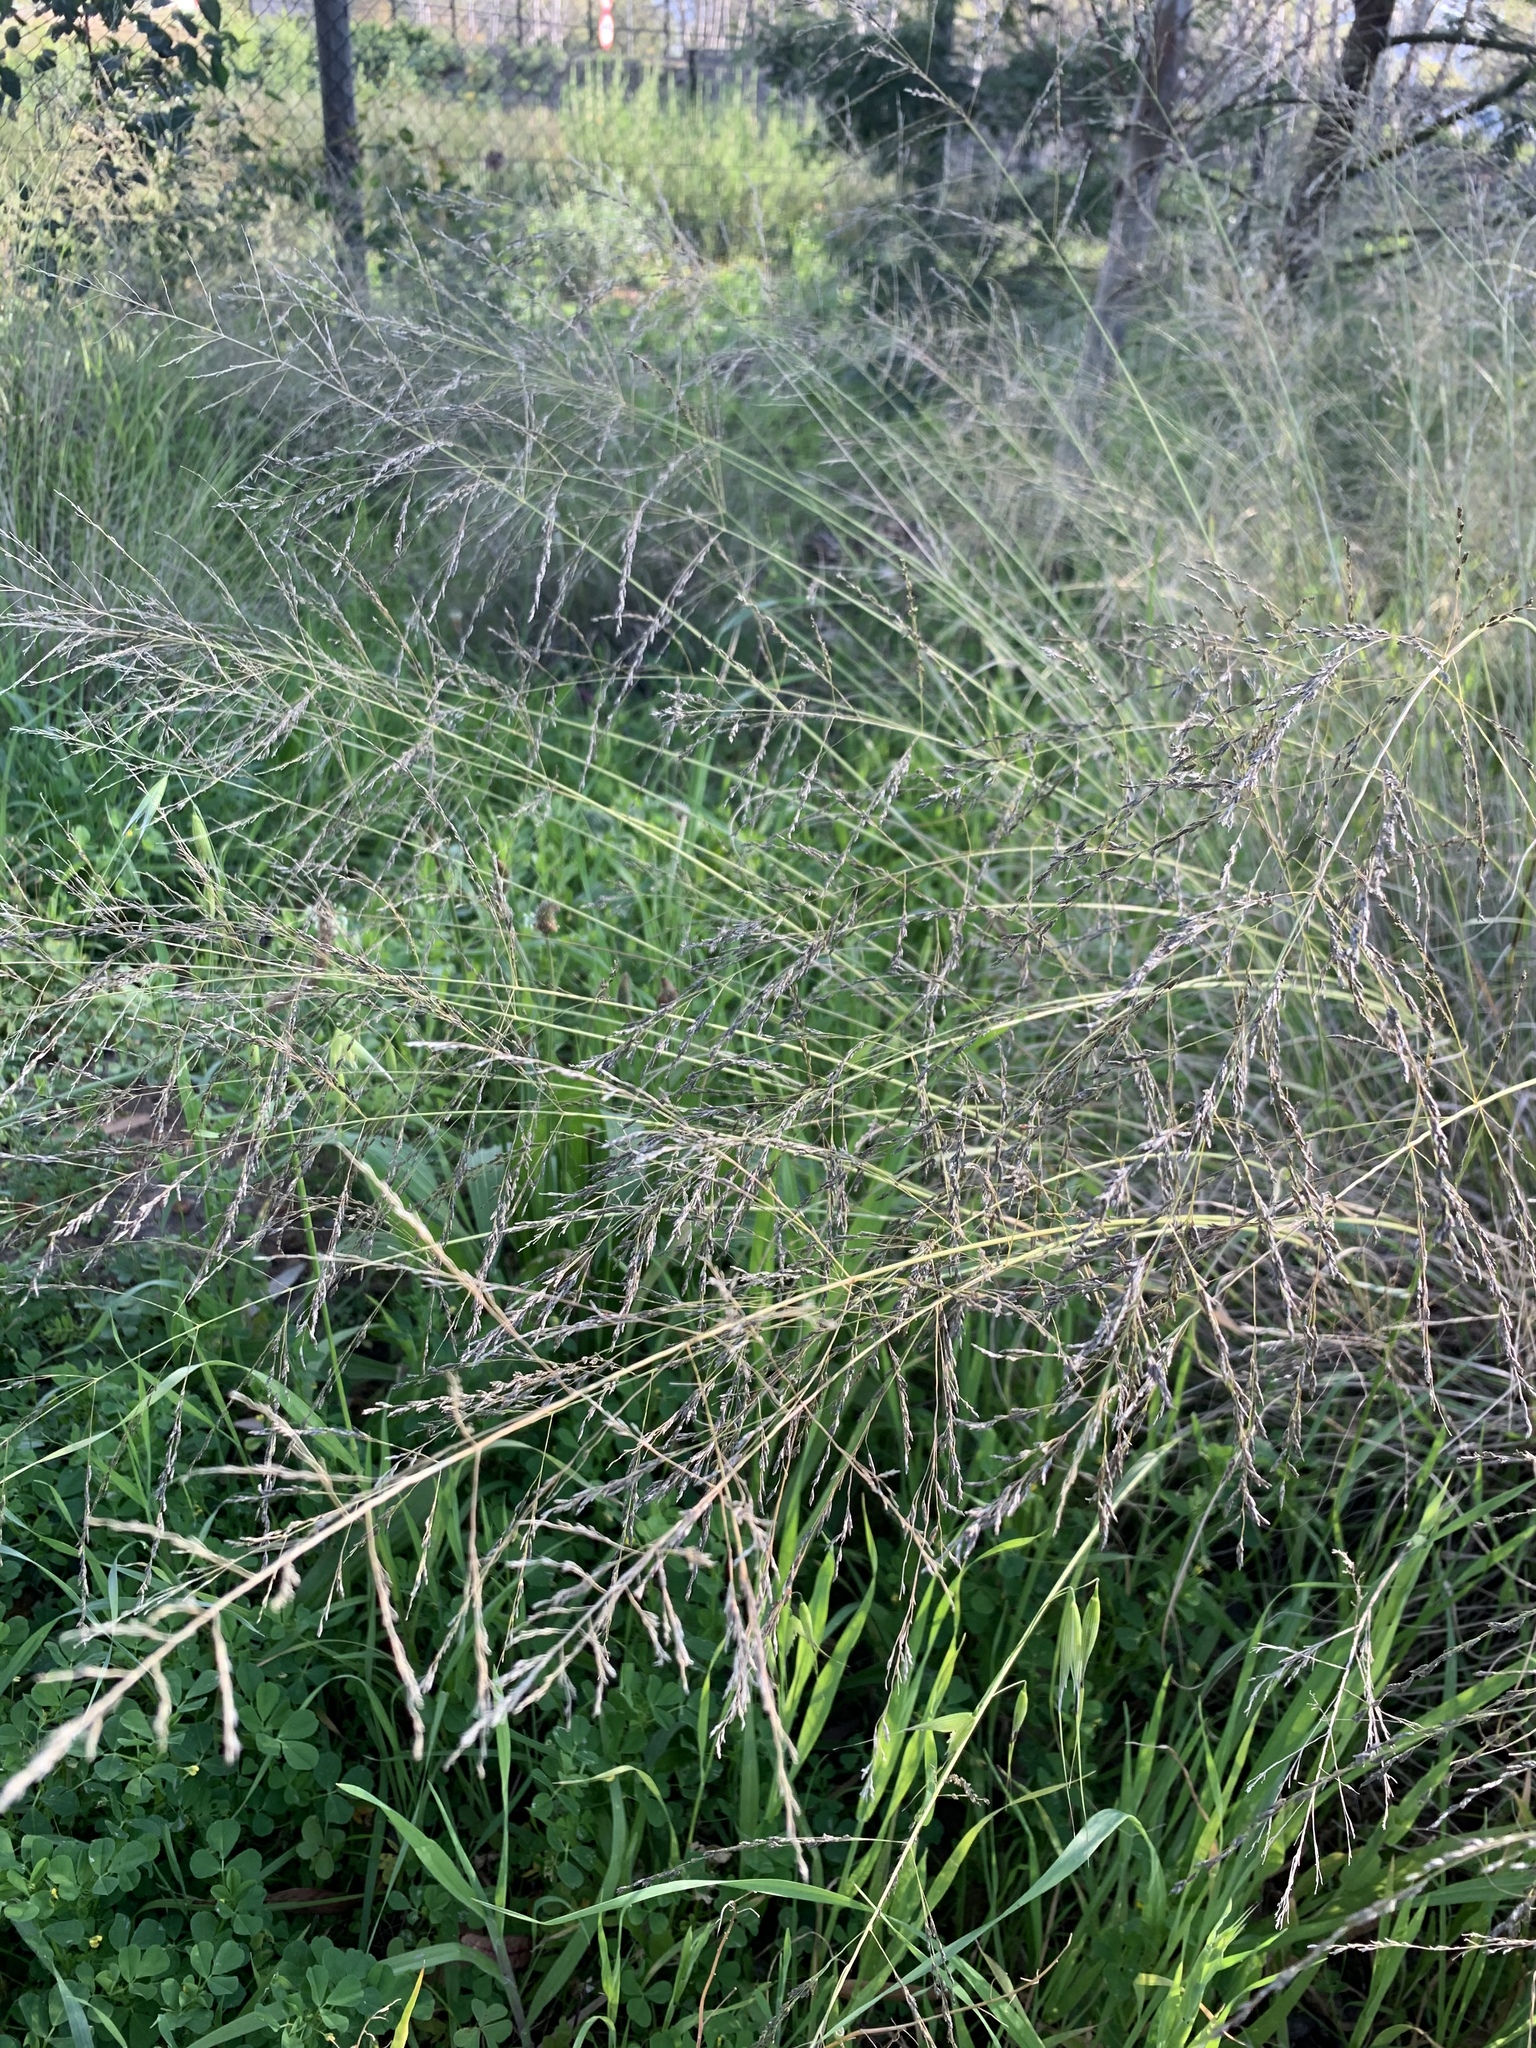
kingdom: Plantae
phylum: Tracheophyta
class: Liliopsida
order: Poales
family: Poaceae
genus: Eragrostis
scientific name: Eragrostis curvula
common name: African love-grass
